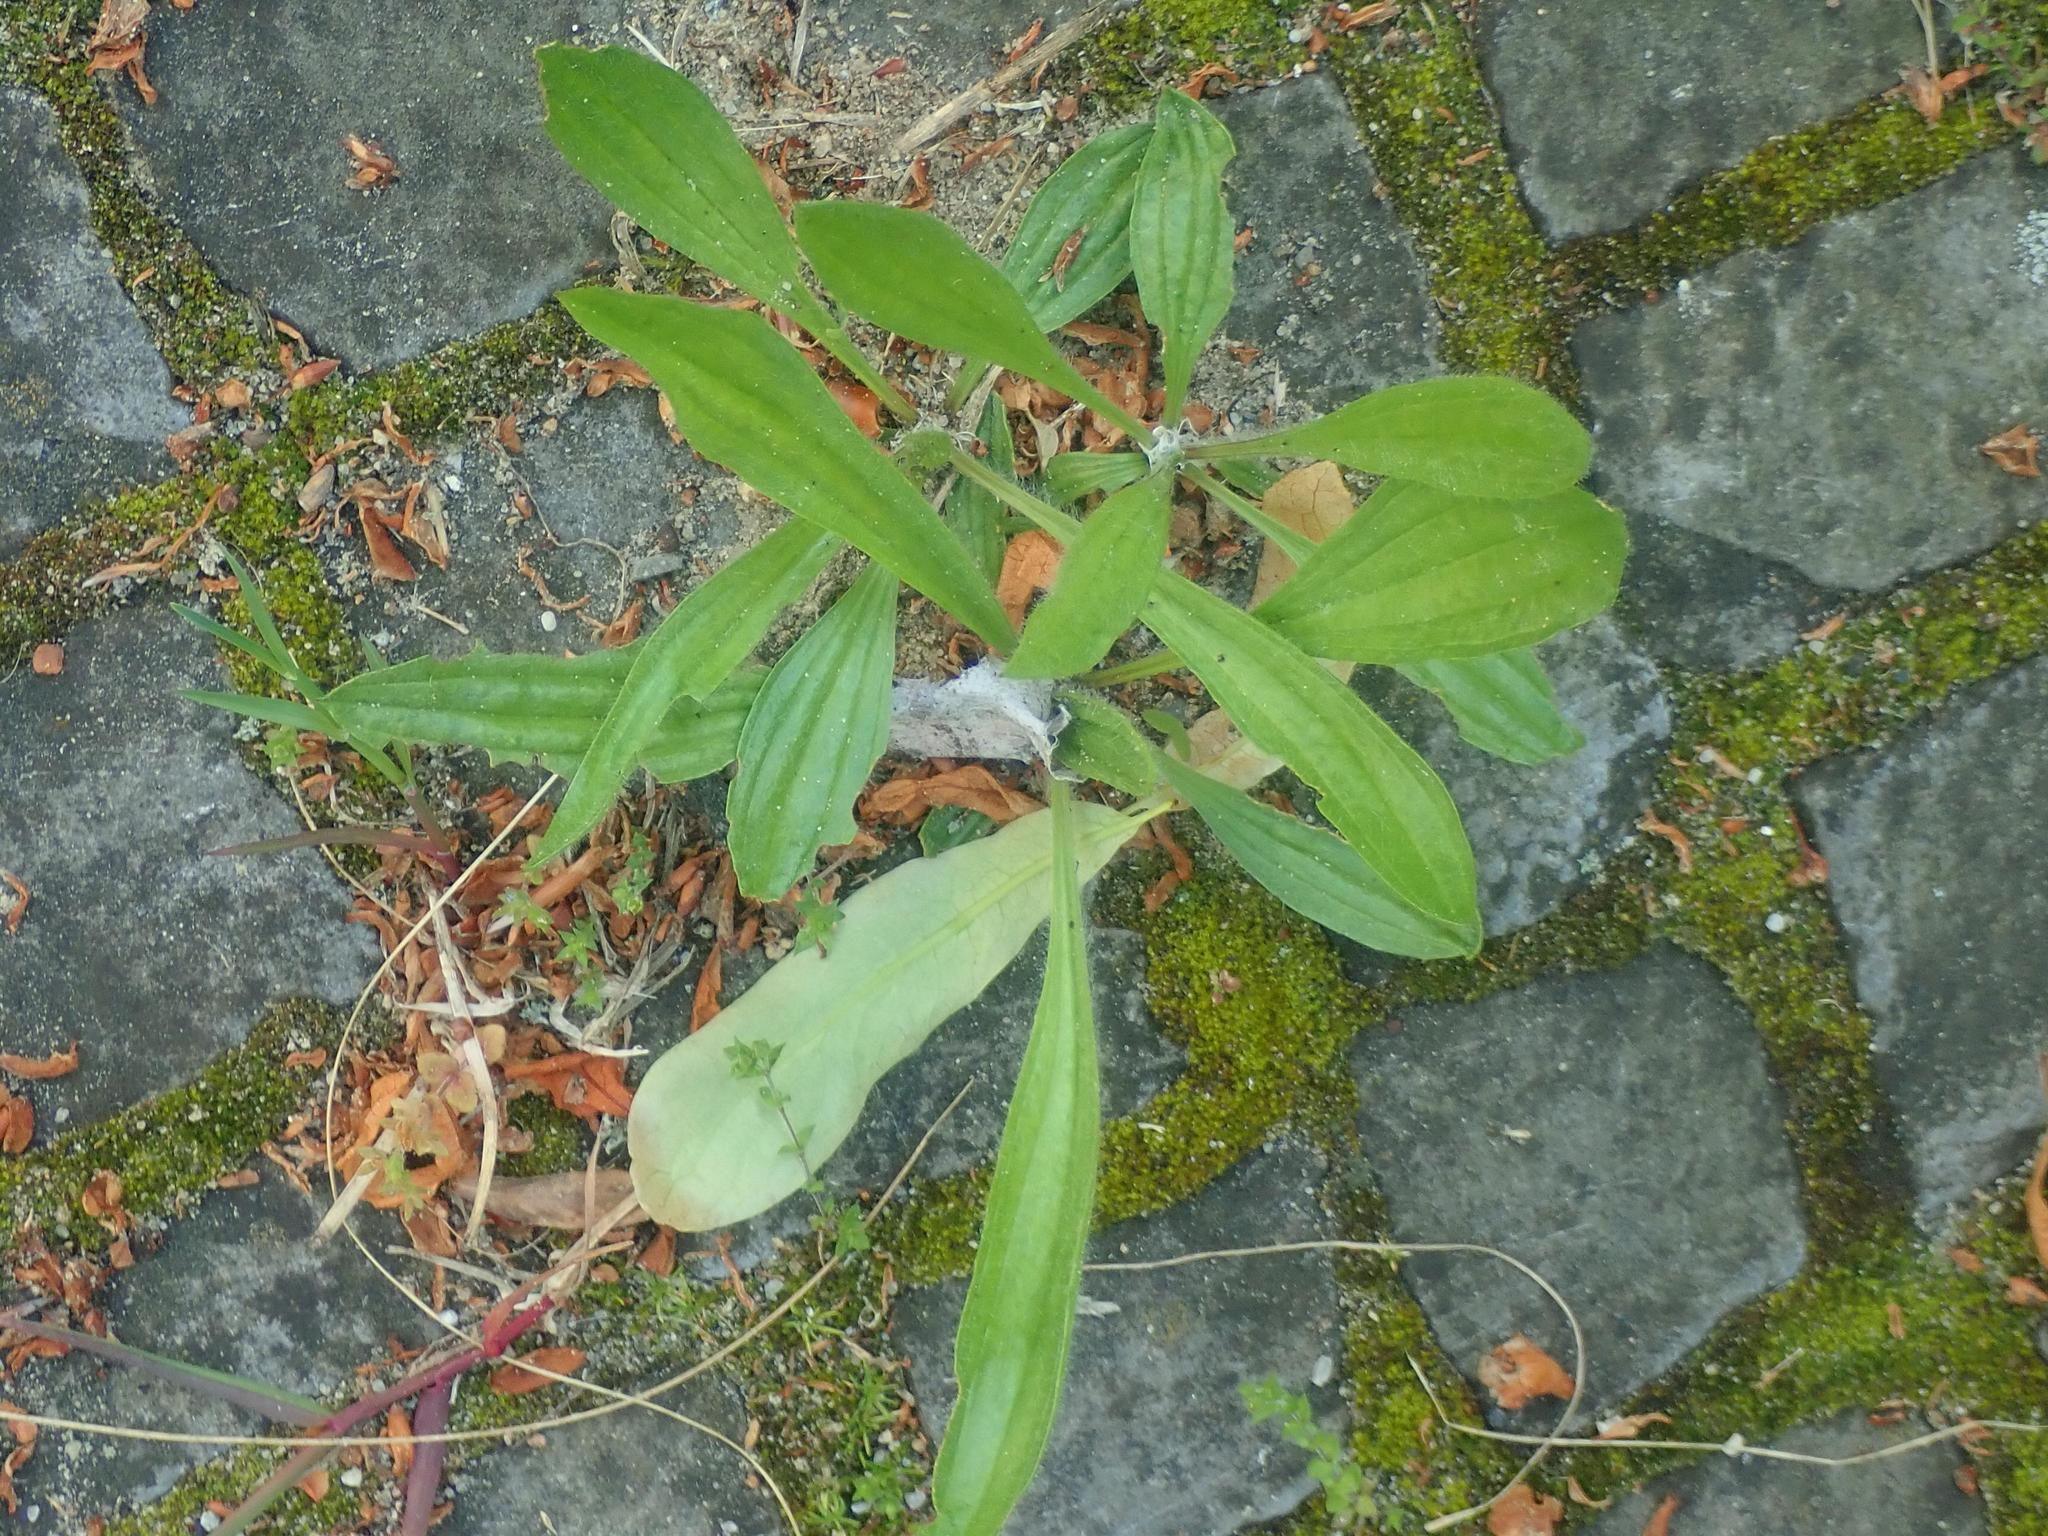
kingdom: Plantae
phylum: Tracheophyta
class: Magnoliopsida
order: Lamiales
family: Plantaginaceae
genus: Plantago
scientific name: Plantago lanceolata
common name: Ribwort plantain
